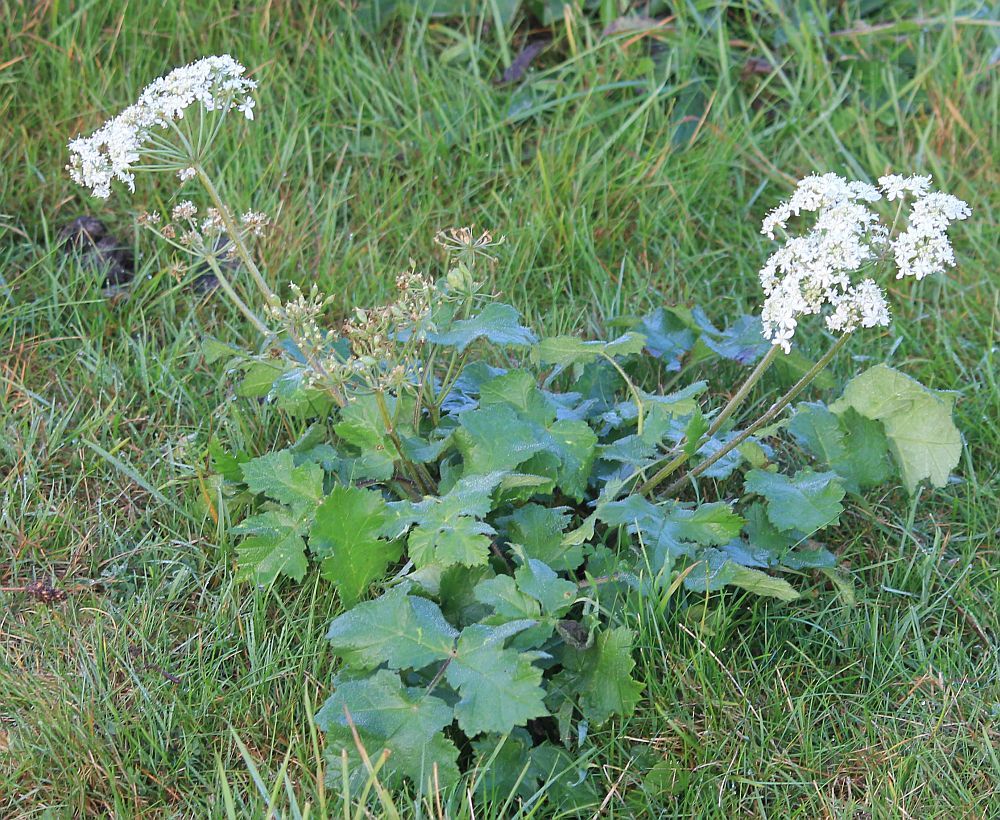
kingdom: Plantae
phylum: Tracheophyta
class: Magnoliopsida
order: Apiales
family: Apiaceae
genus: Heracleum
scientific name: Heracleum sphondylium
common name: Hogweed
